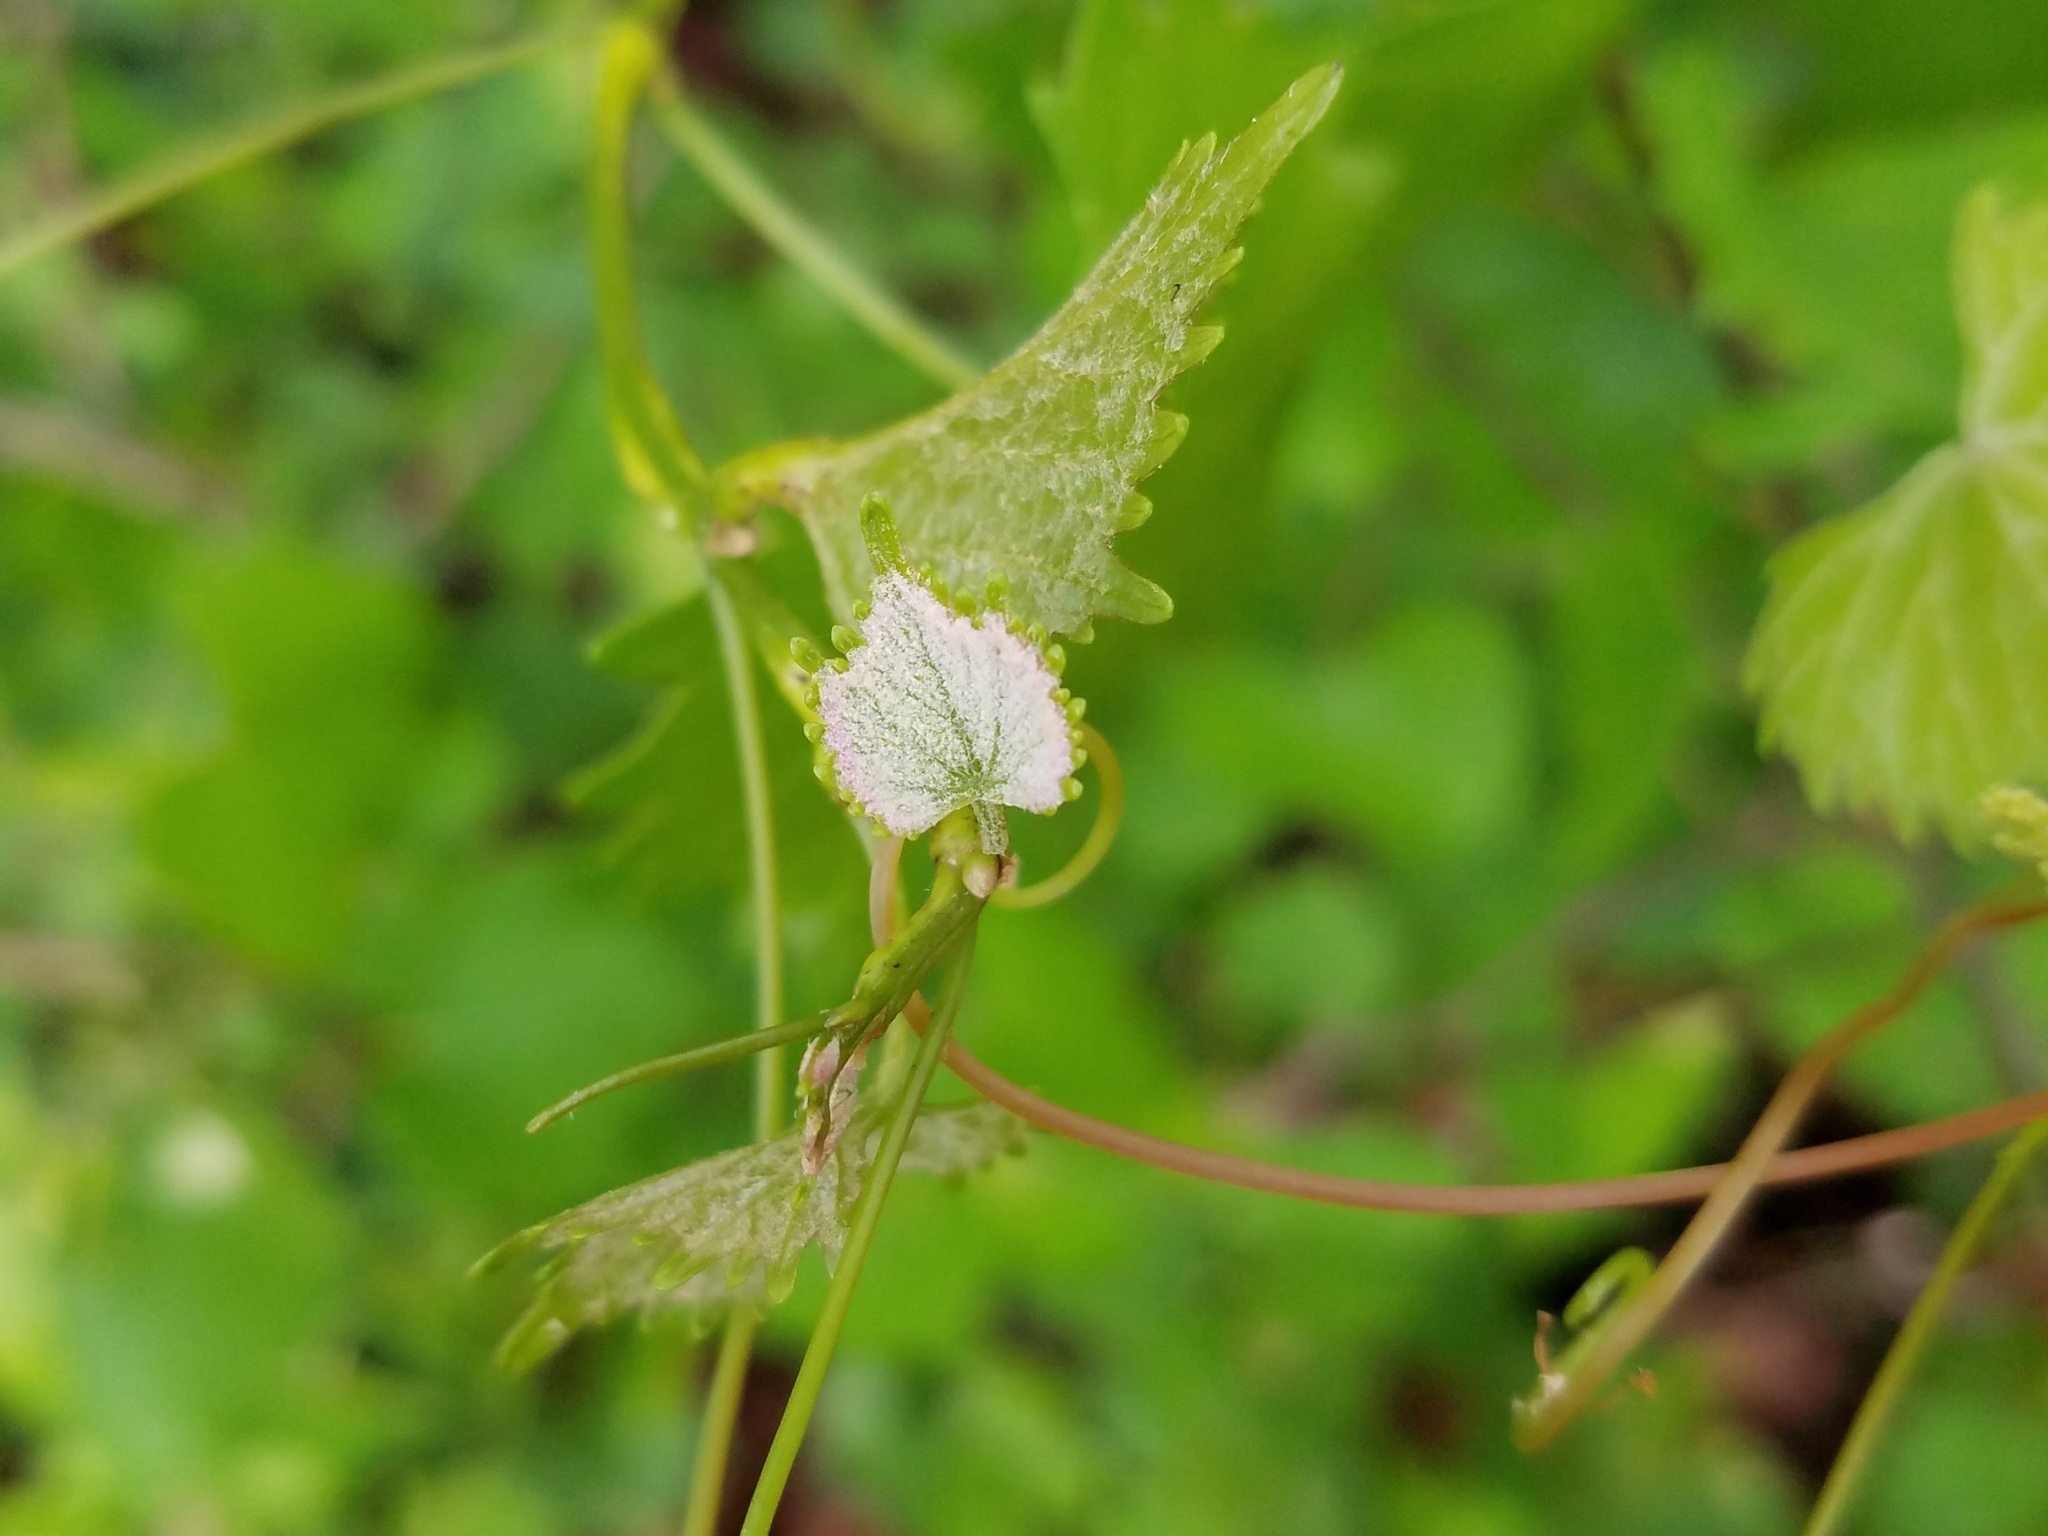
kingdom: Plantae
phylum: Tracheophyta
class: Magnoliopsida
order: Vitales
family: Vitaceae
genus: Vitis
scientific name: Vitis rotundifolia
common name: Muscadine grape
